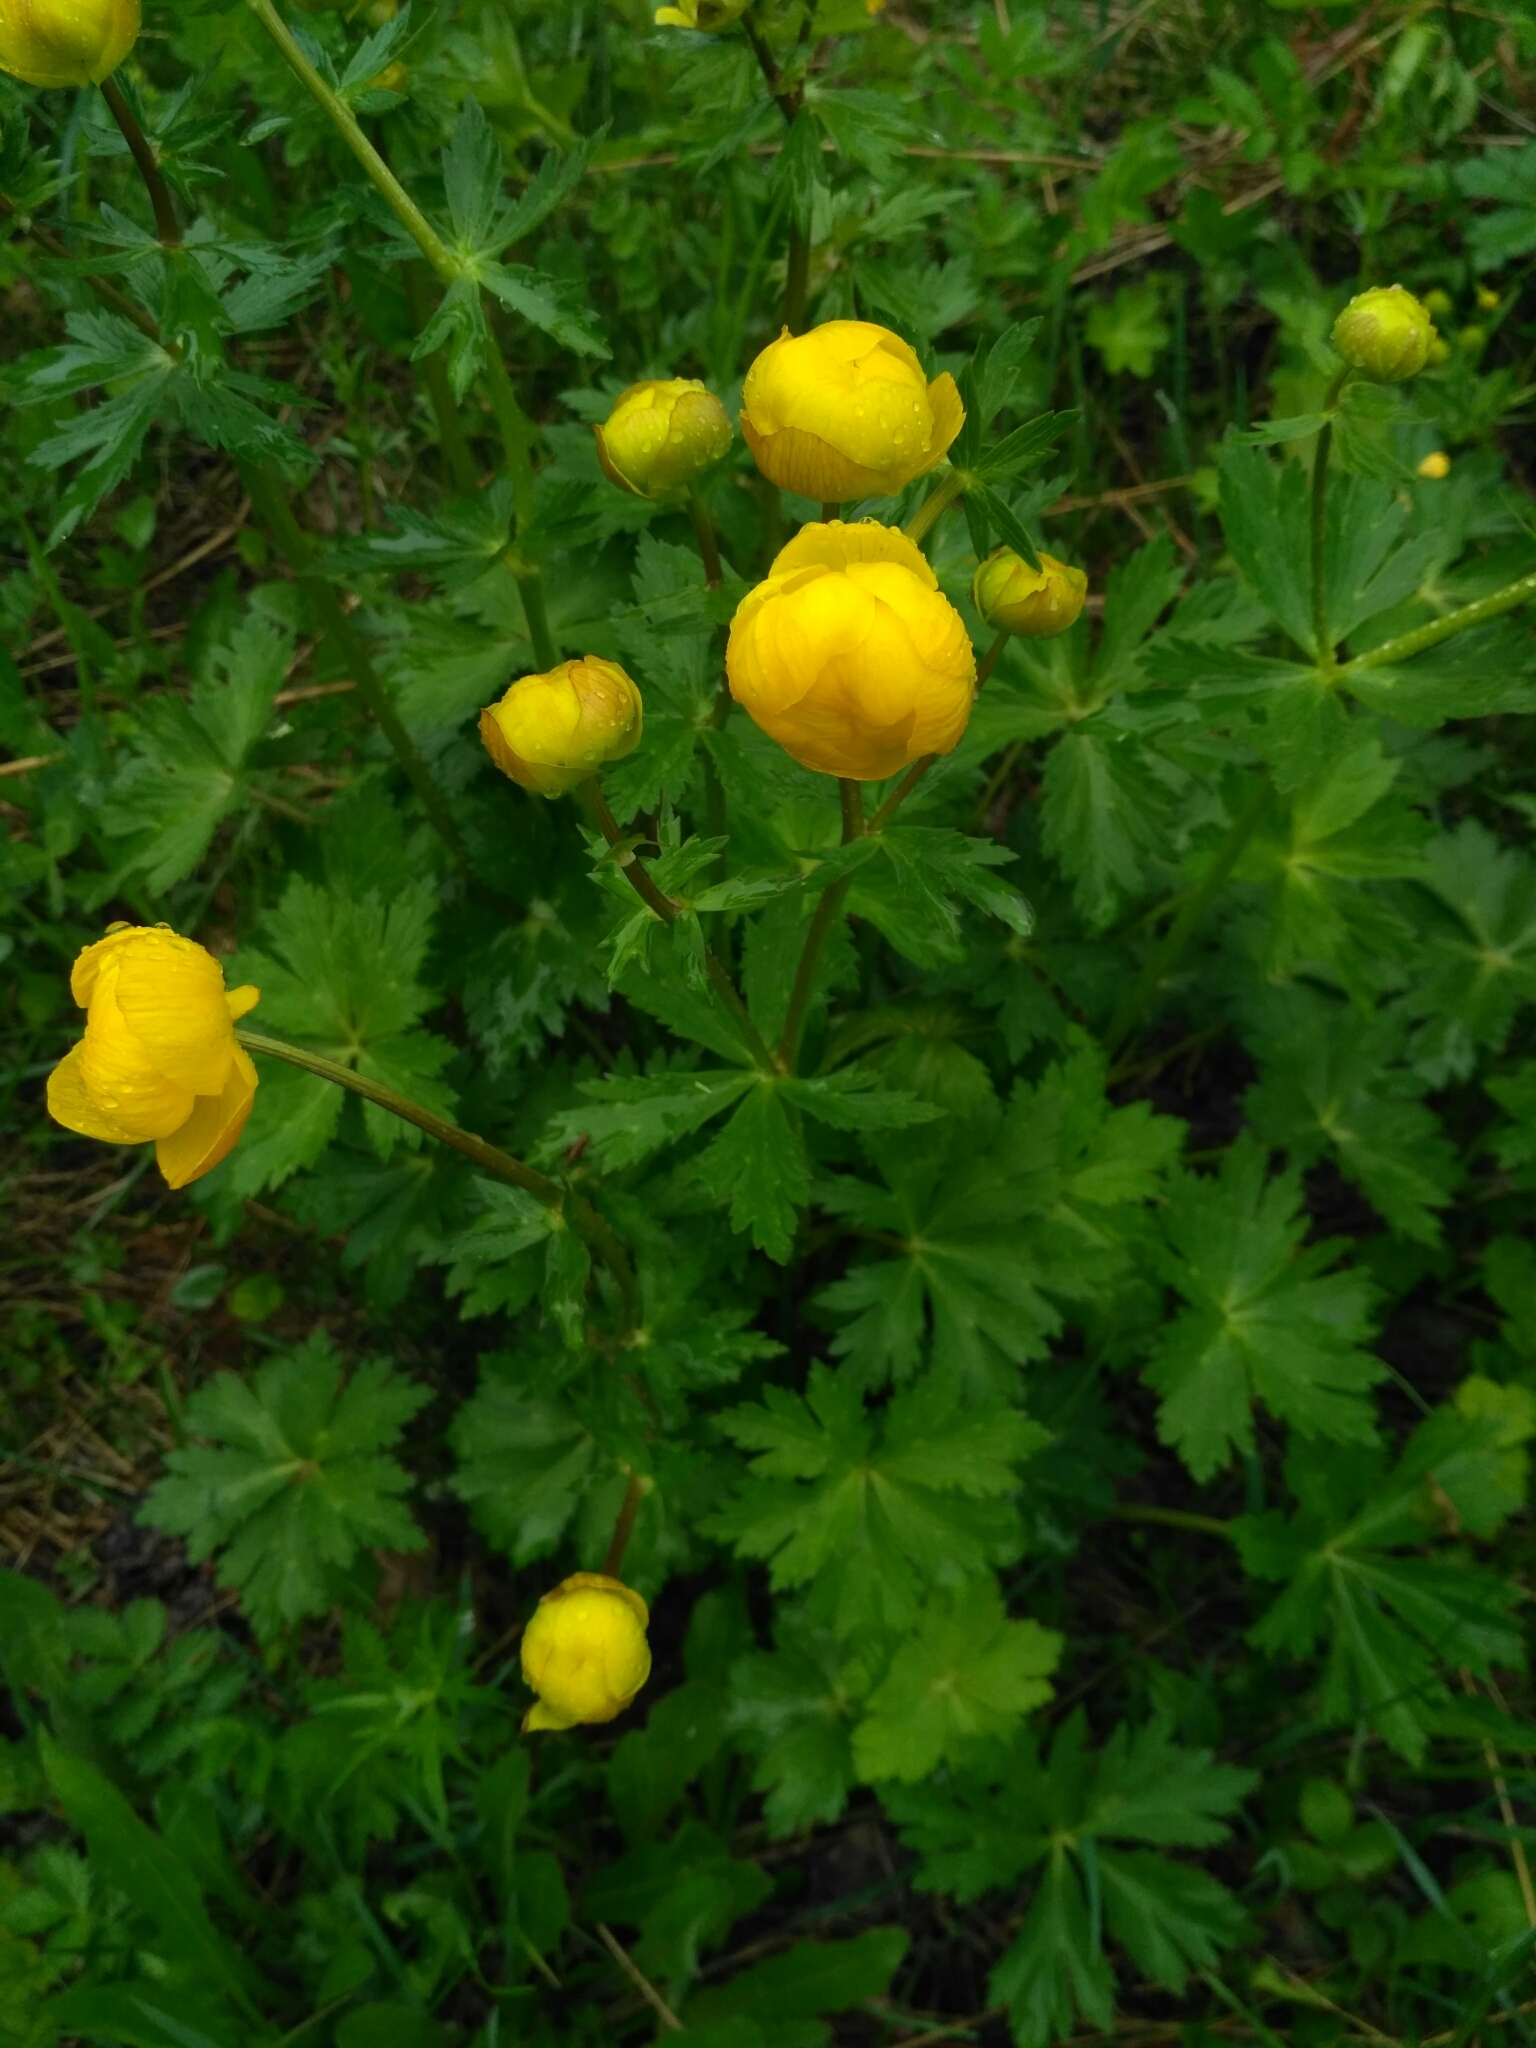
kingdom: Plantae
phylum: Tracheophyta
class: Magnoliopsida
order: Ranunculales
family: Ranunculaceae
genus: Trollius
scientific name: Trollius europaeus
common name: European globeflower
